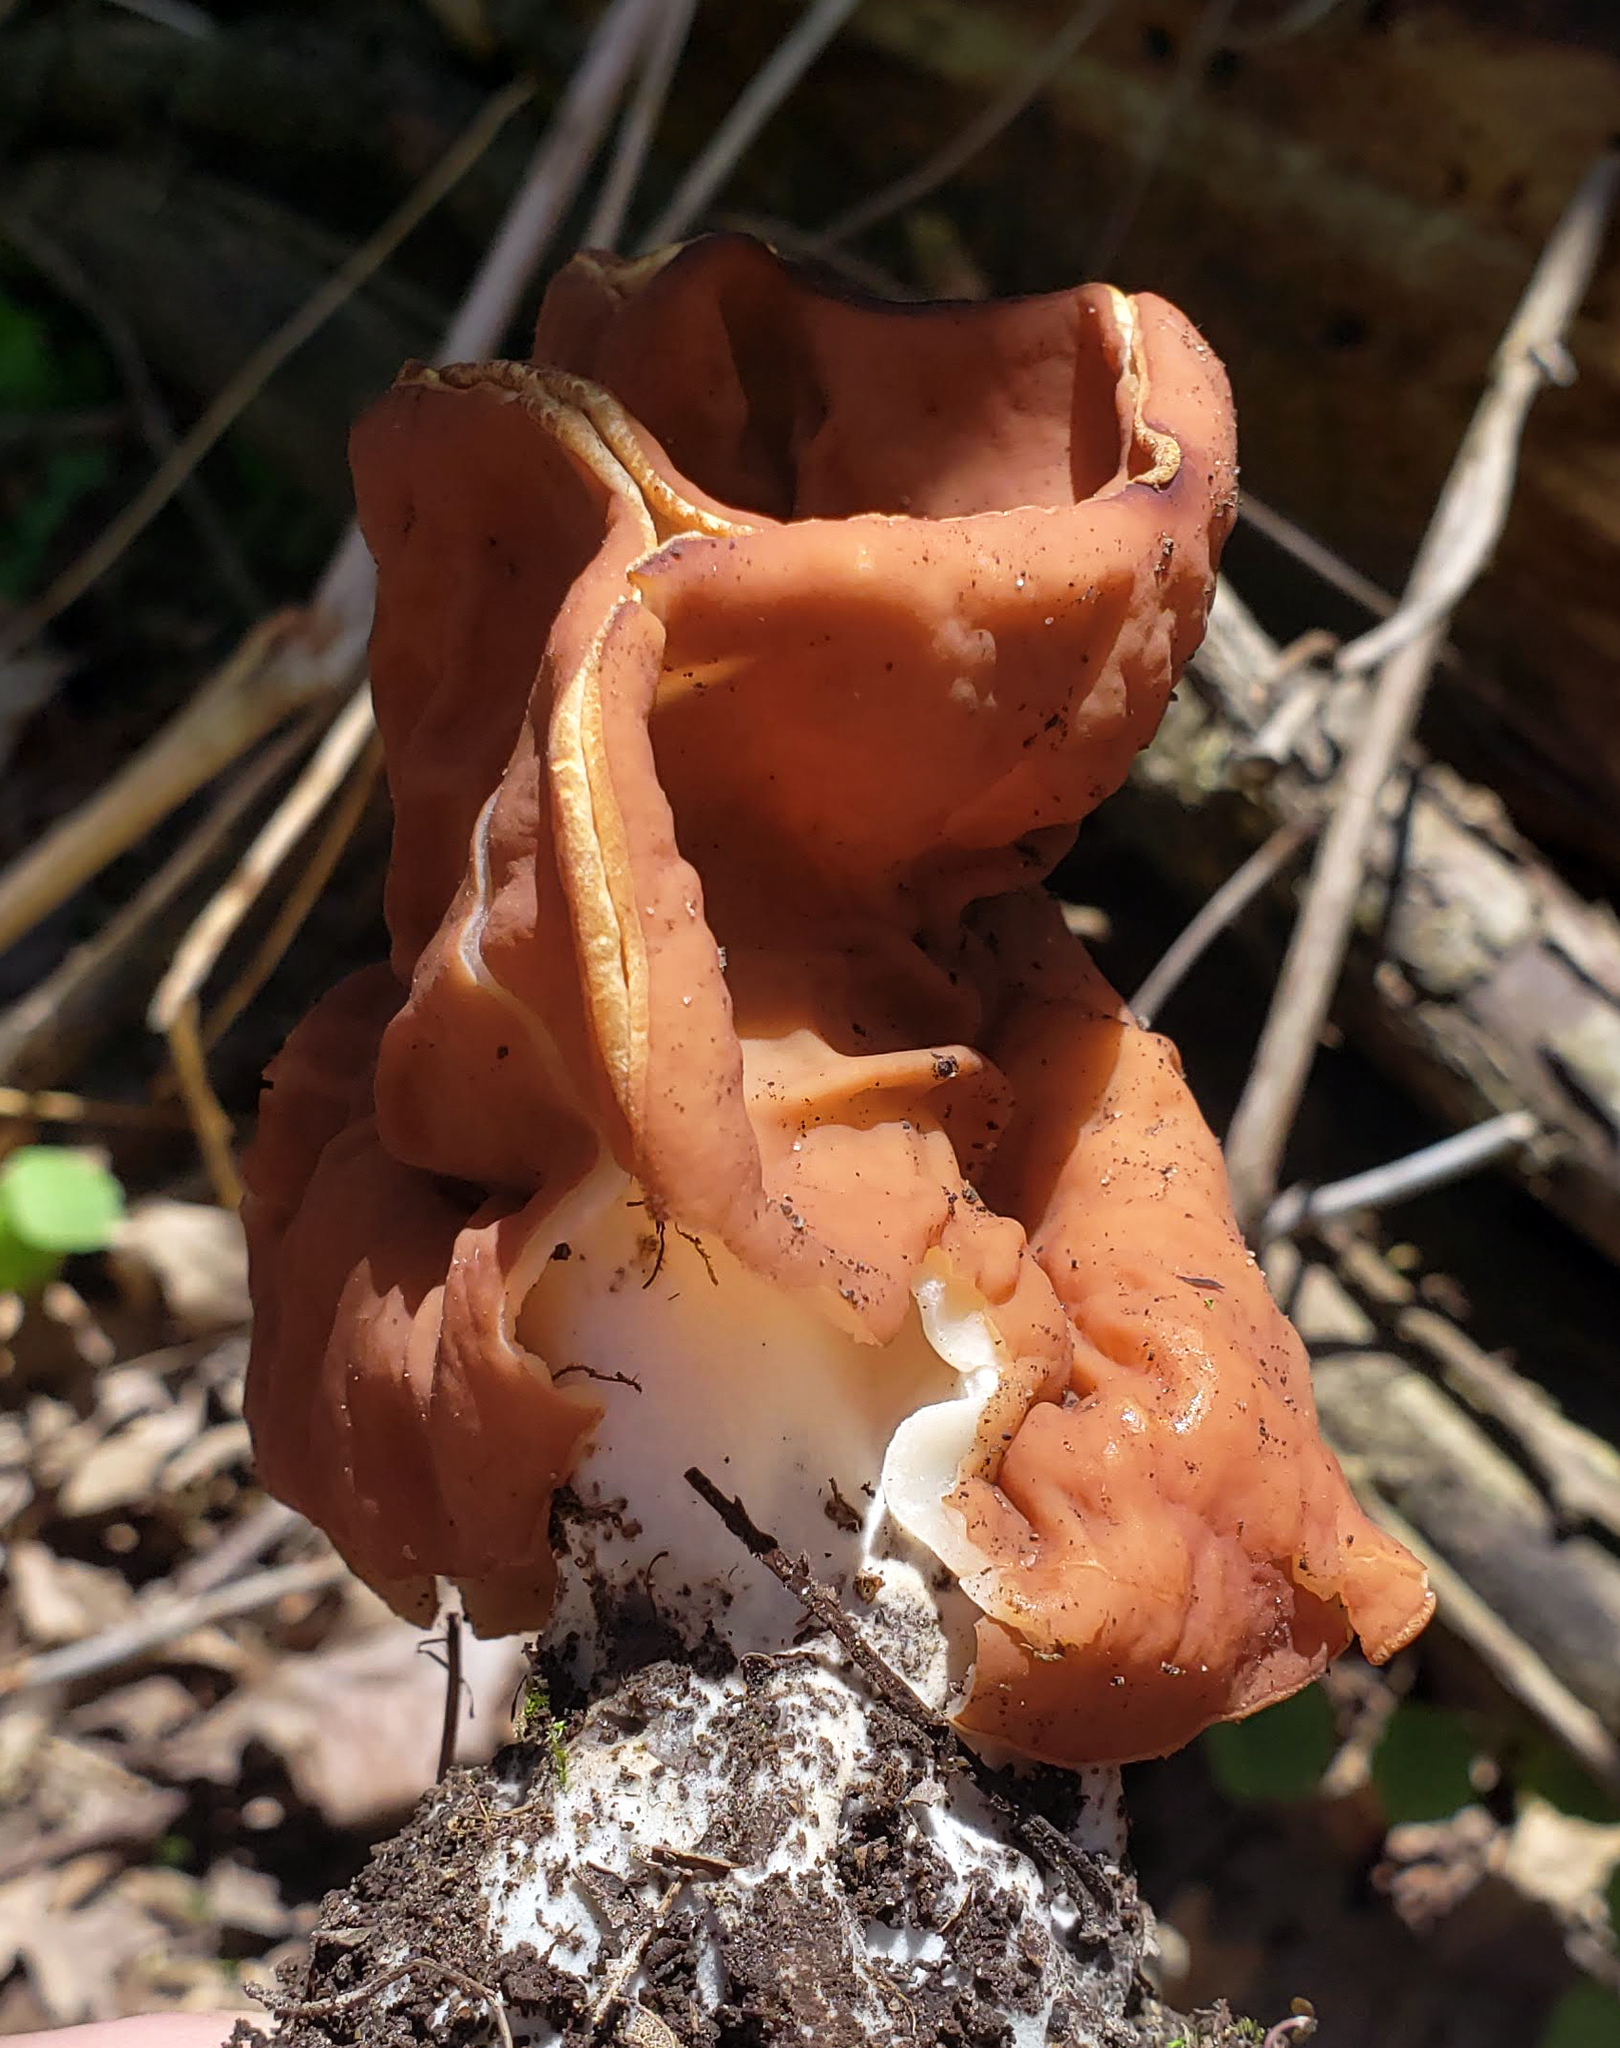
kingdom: Fungi
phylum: Ascomycota
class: Pezizomycetes
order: Pezizales
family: Discinaceae
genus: Discina
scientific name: Discina brunnea
